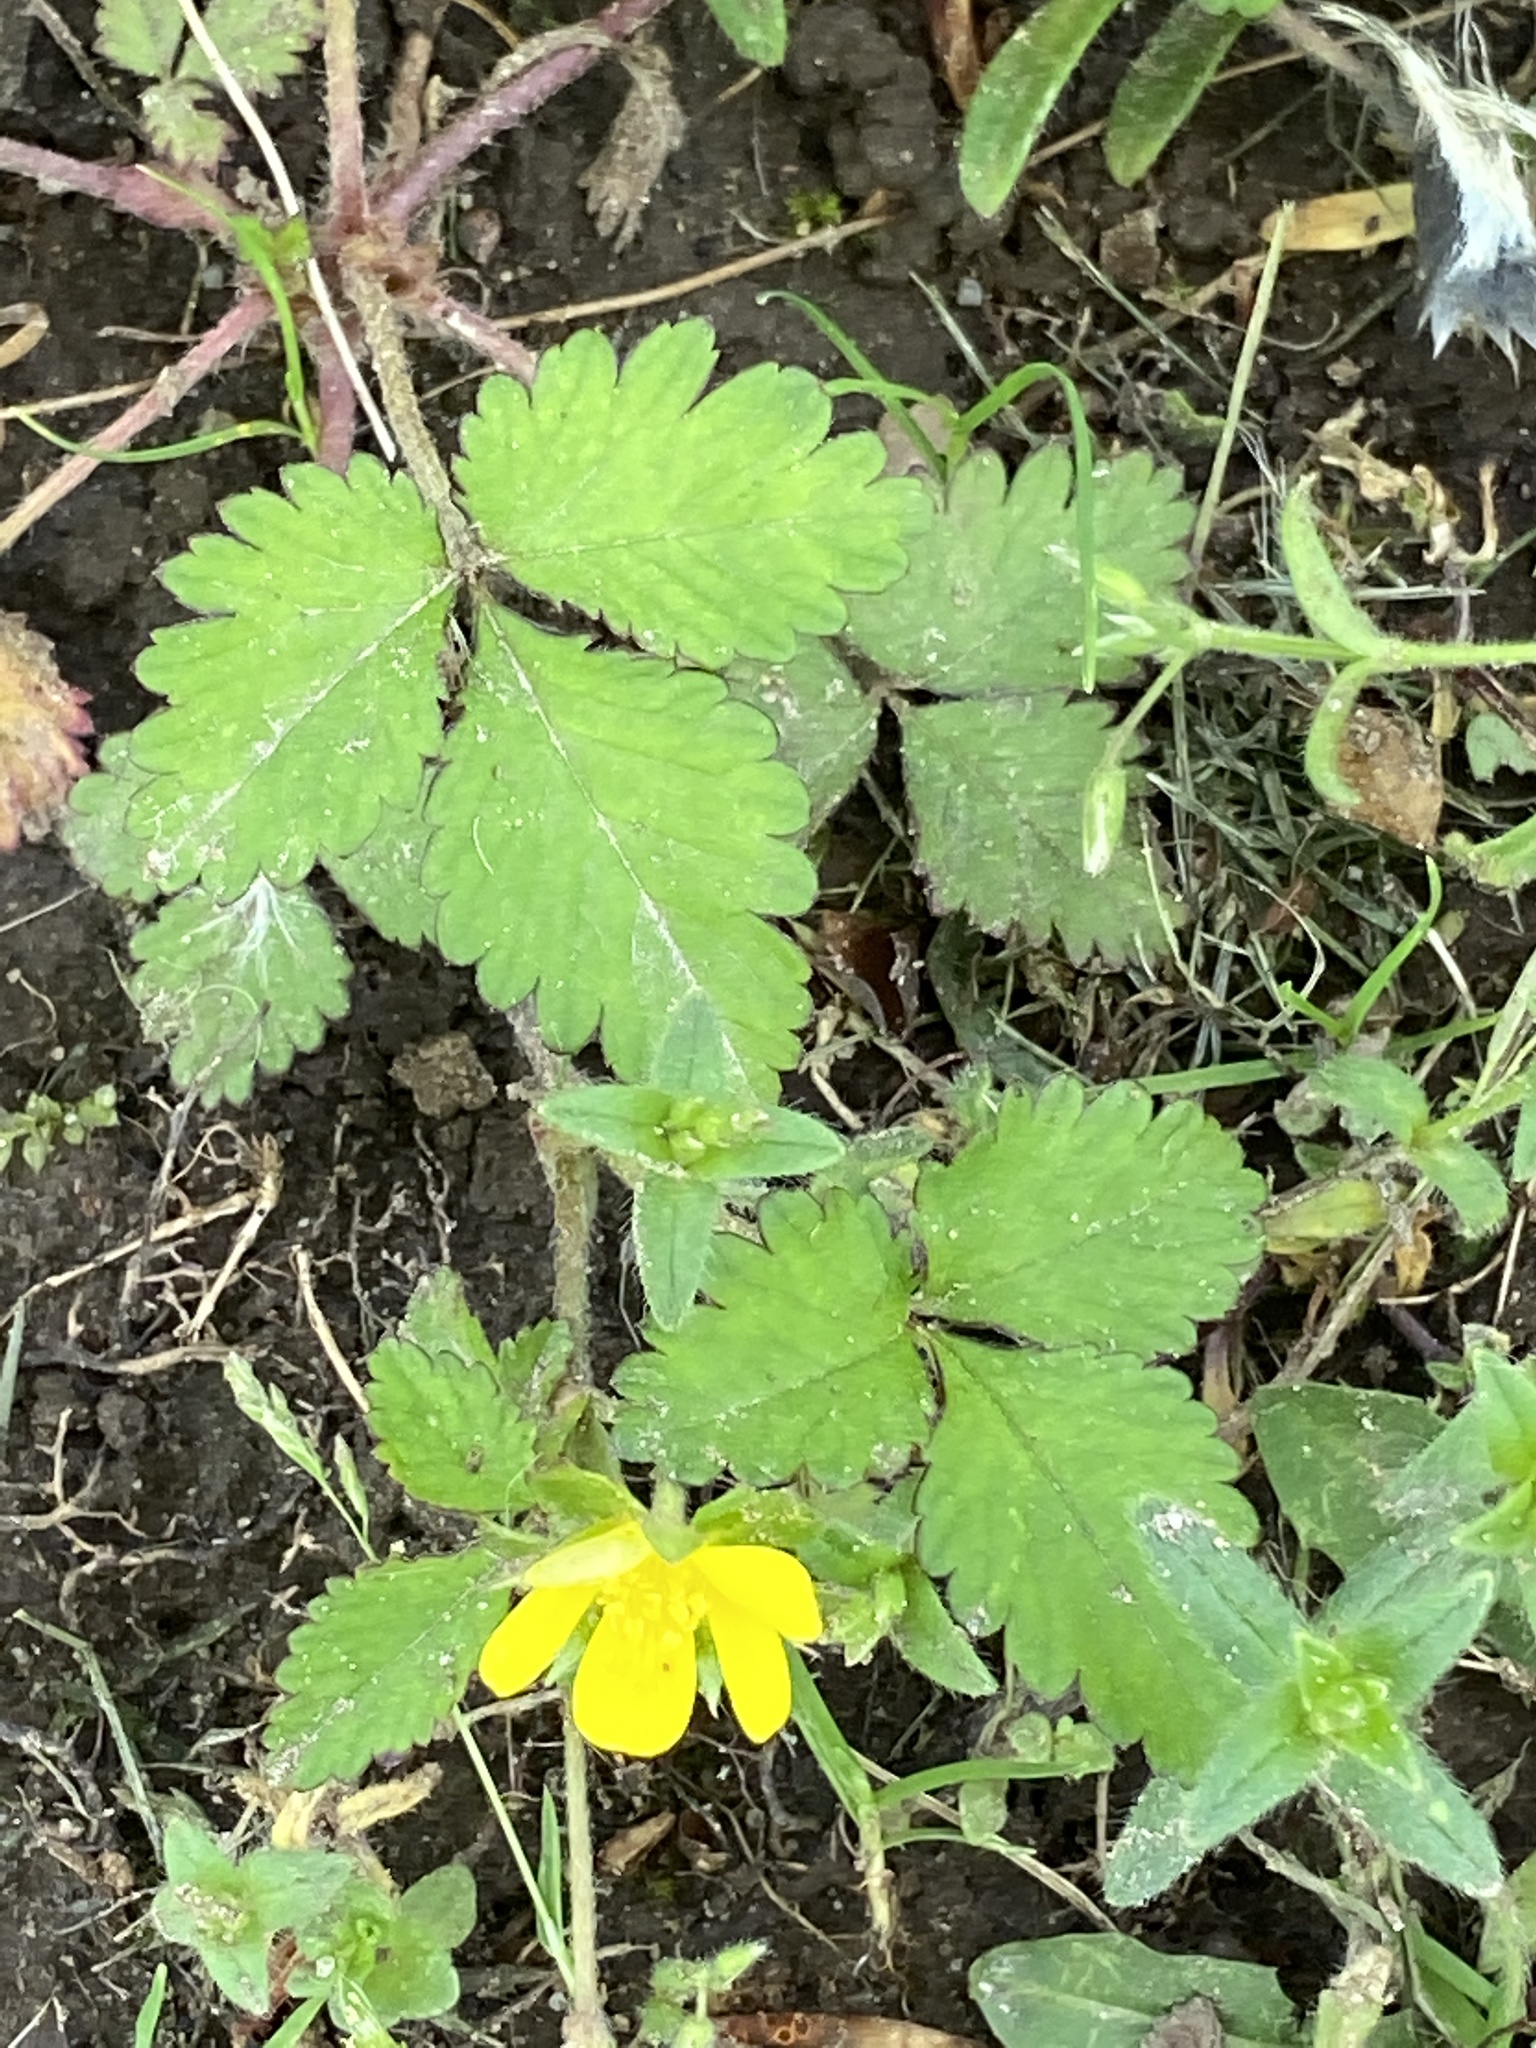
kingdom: Plantae
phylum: Tracheophyta
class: Magnoliopsida
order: Rosales
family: Rosaceae
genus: Potentilla
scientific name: Potentilla indica
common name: Yellow-flowered strawberry
